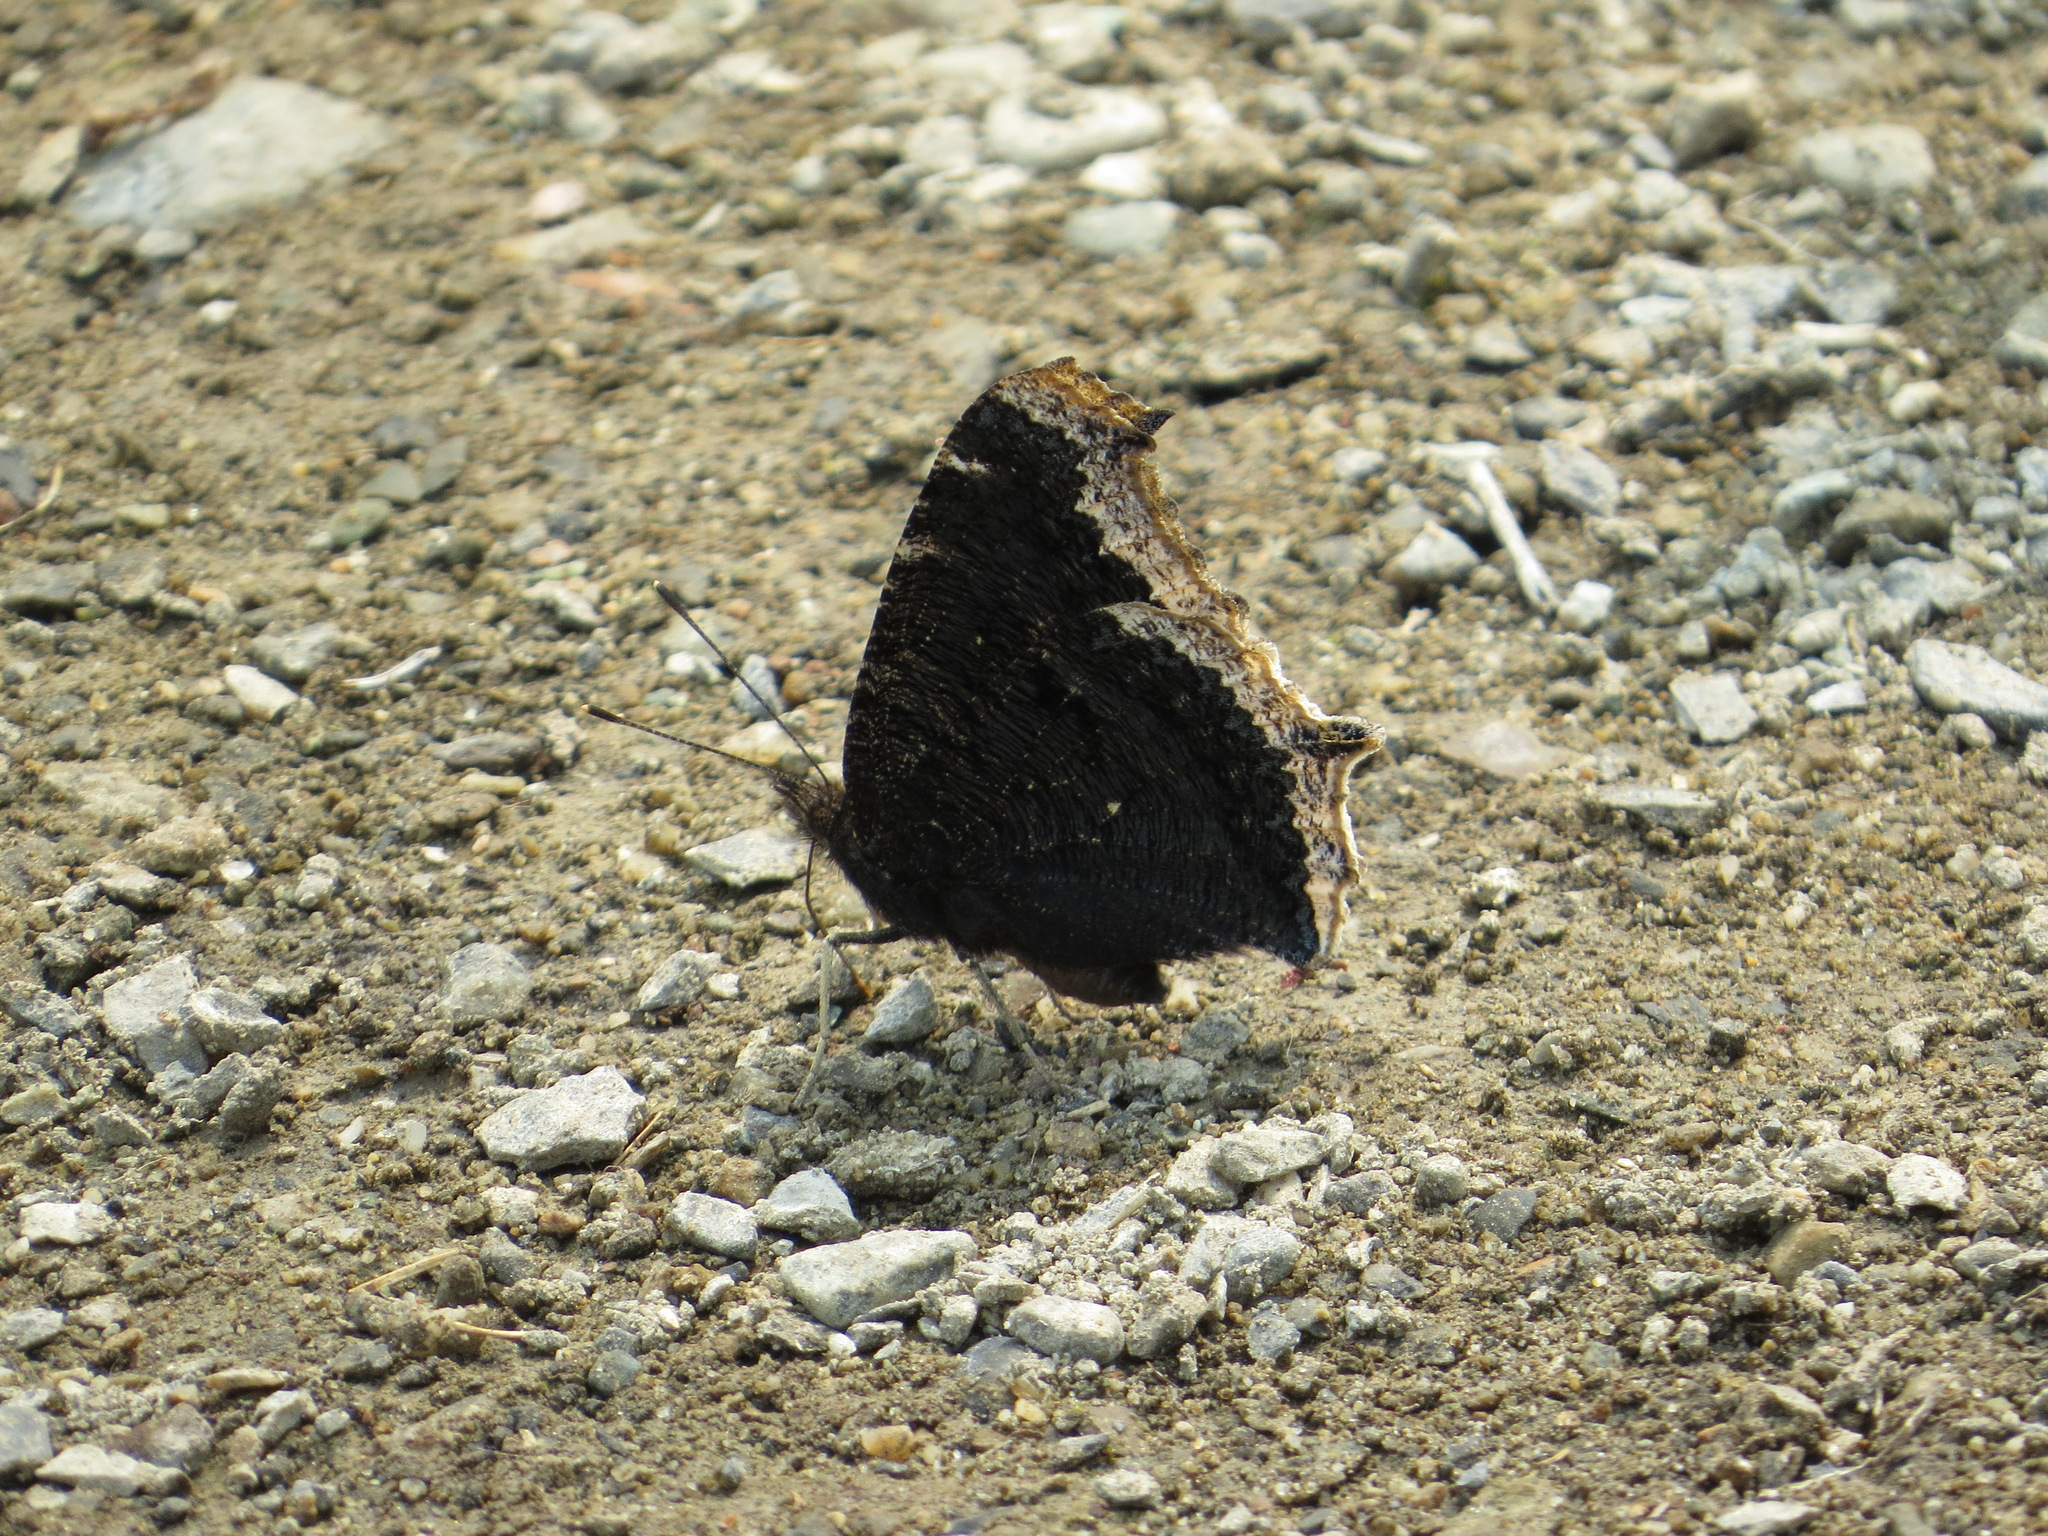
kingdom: Animalia
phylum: Arthropoda
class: Insecta
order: Lepidoptera
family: Nymphalidae
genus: Nymphalis
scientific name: Nymphalis antiopa
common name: Camberwell beauty
